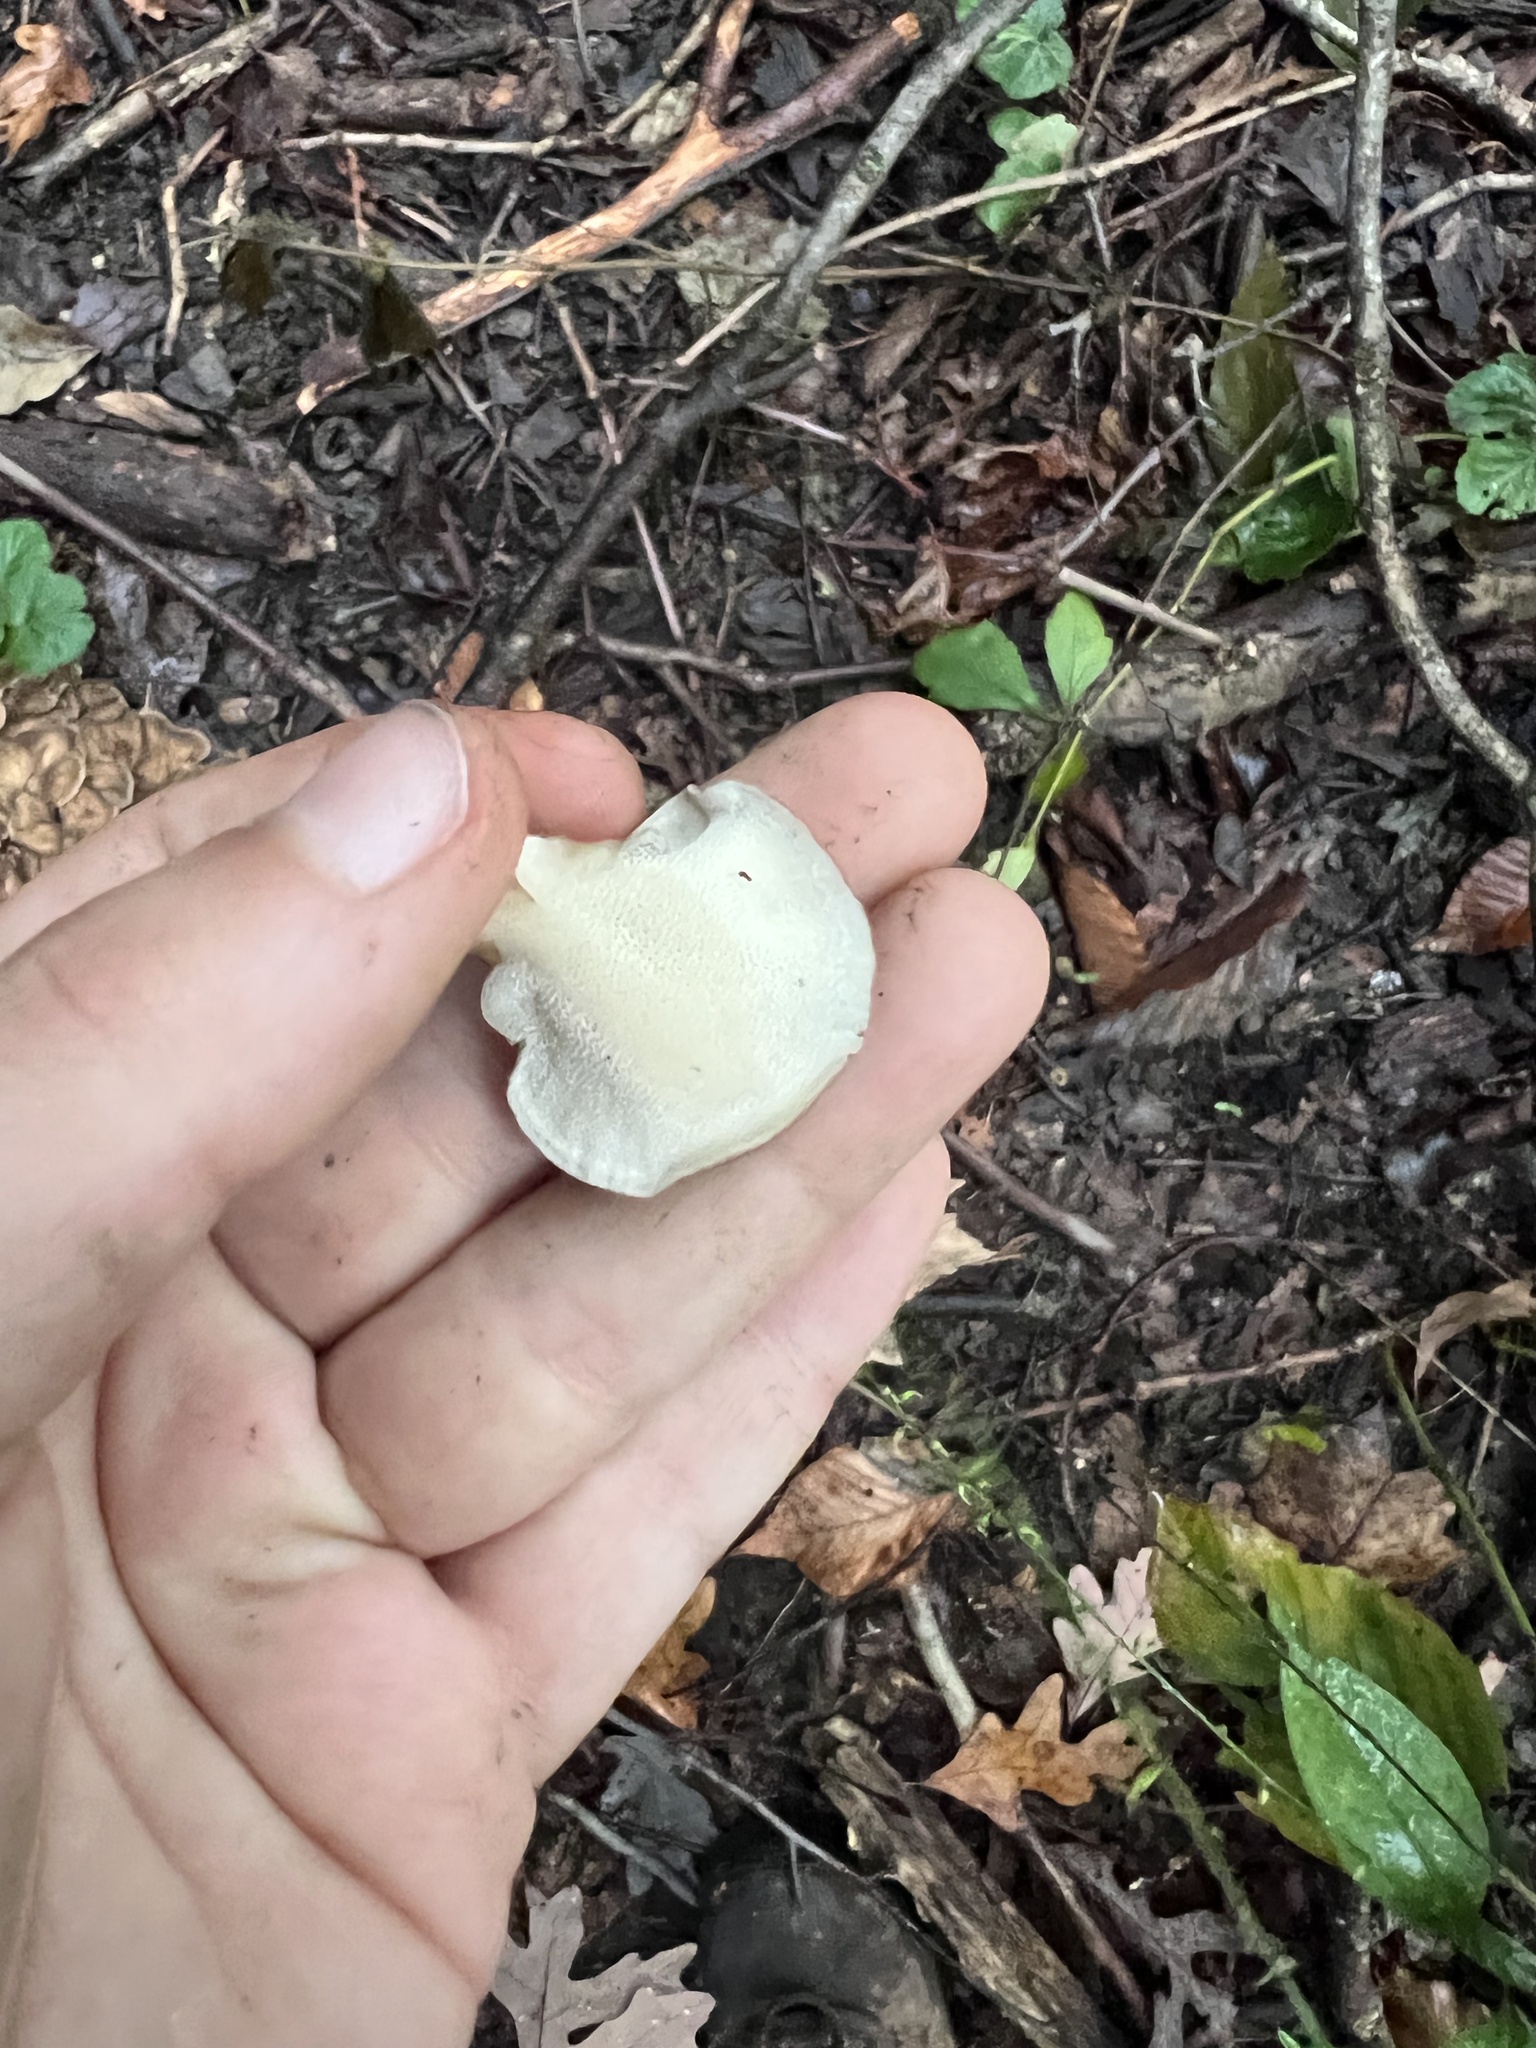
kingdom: Fungi
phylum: Basidiomycota
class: Agaricomycetes
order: Polyporales
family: Grifolaceae
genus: Grifola
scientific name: Grifola frondosa
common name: Hen of the woods
